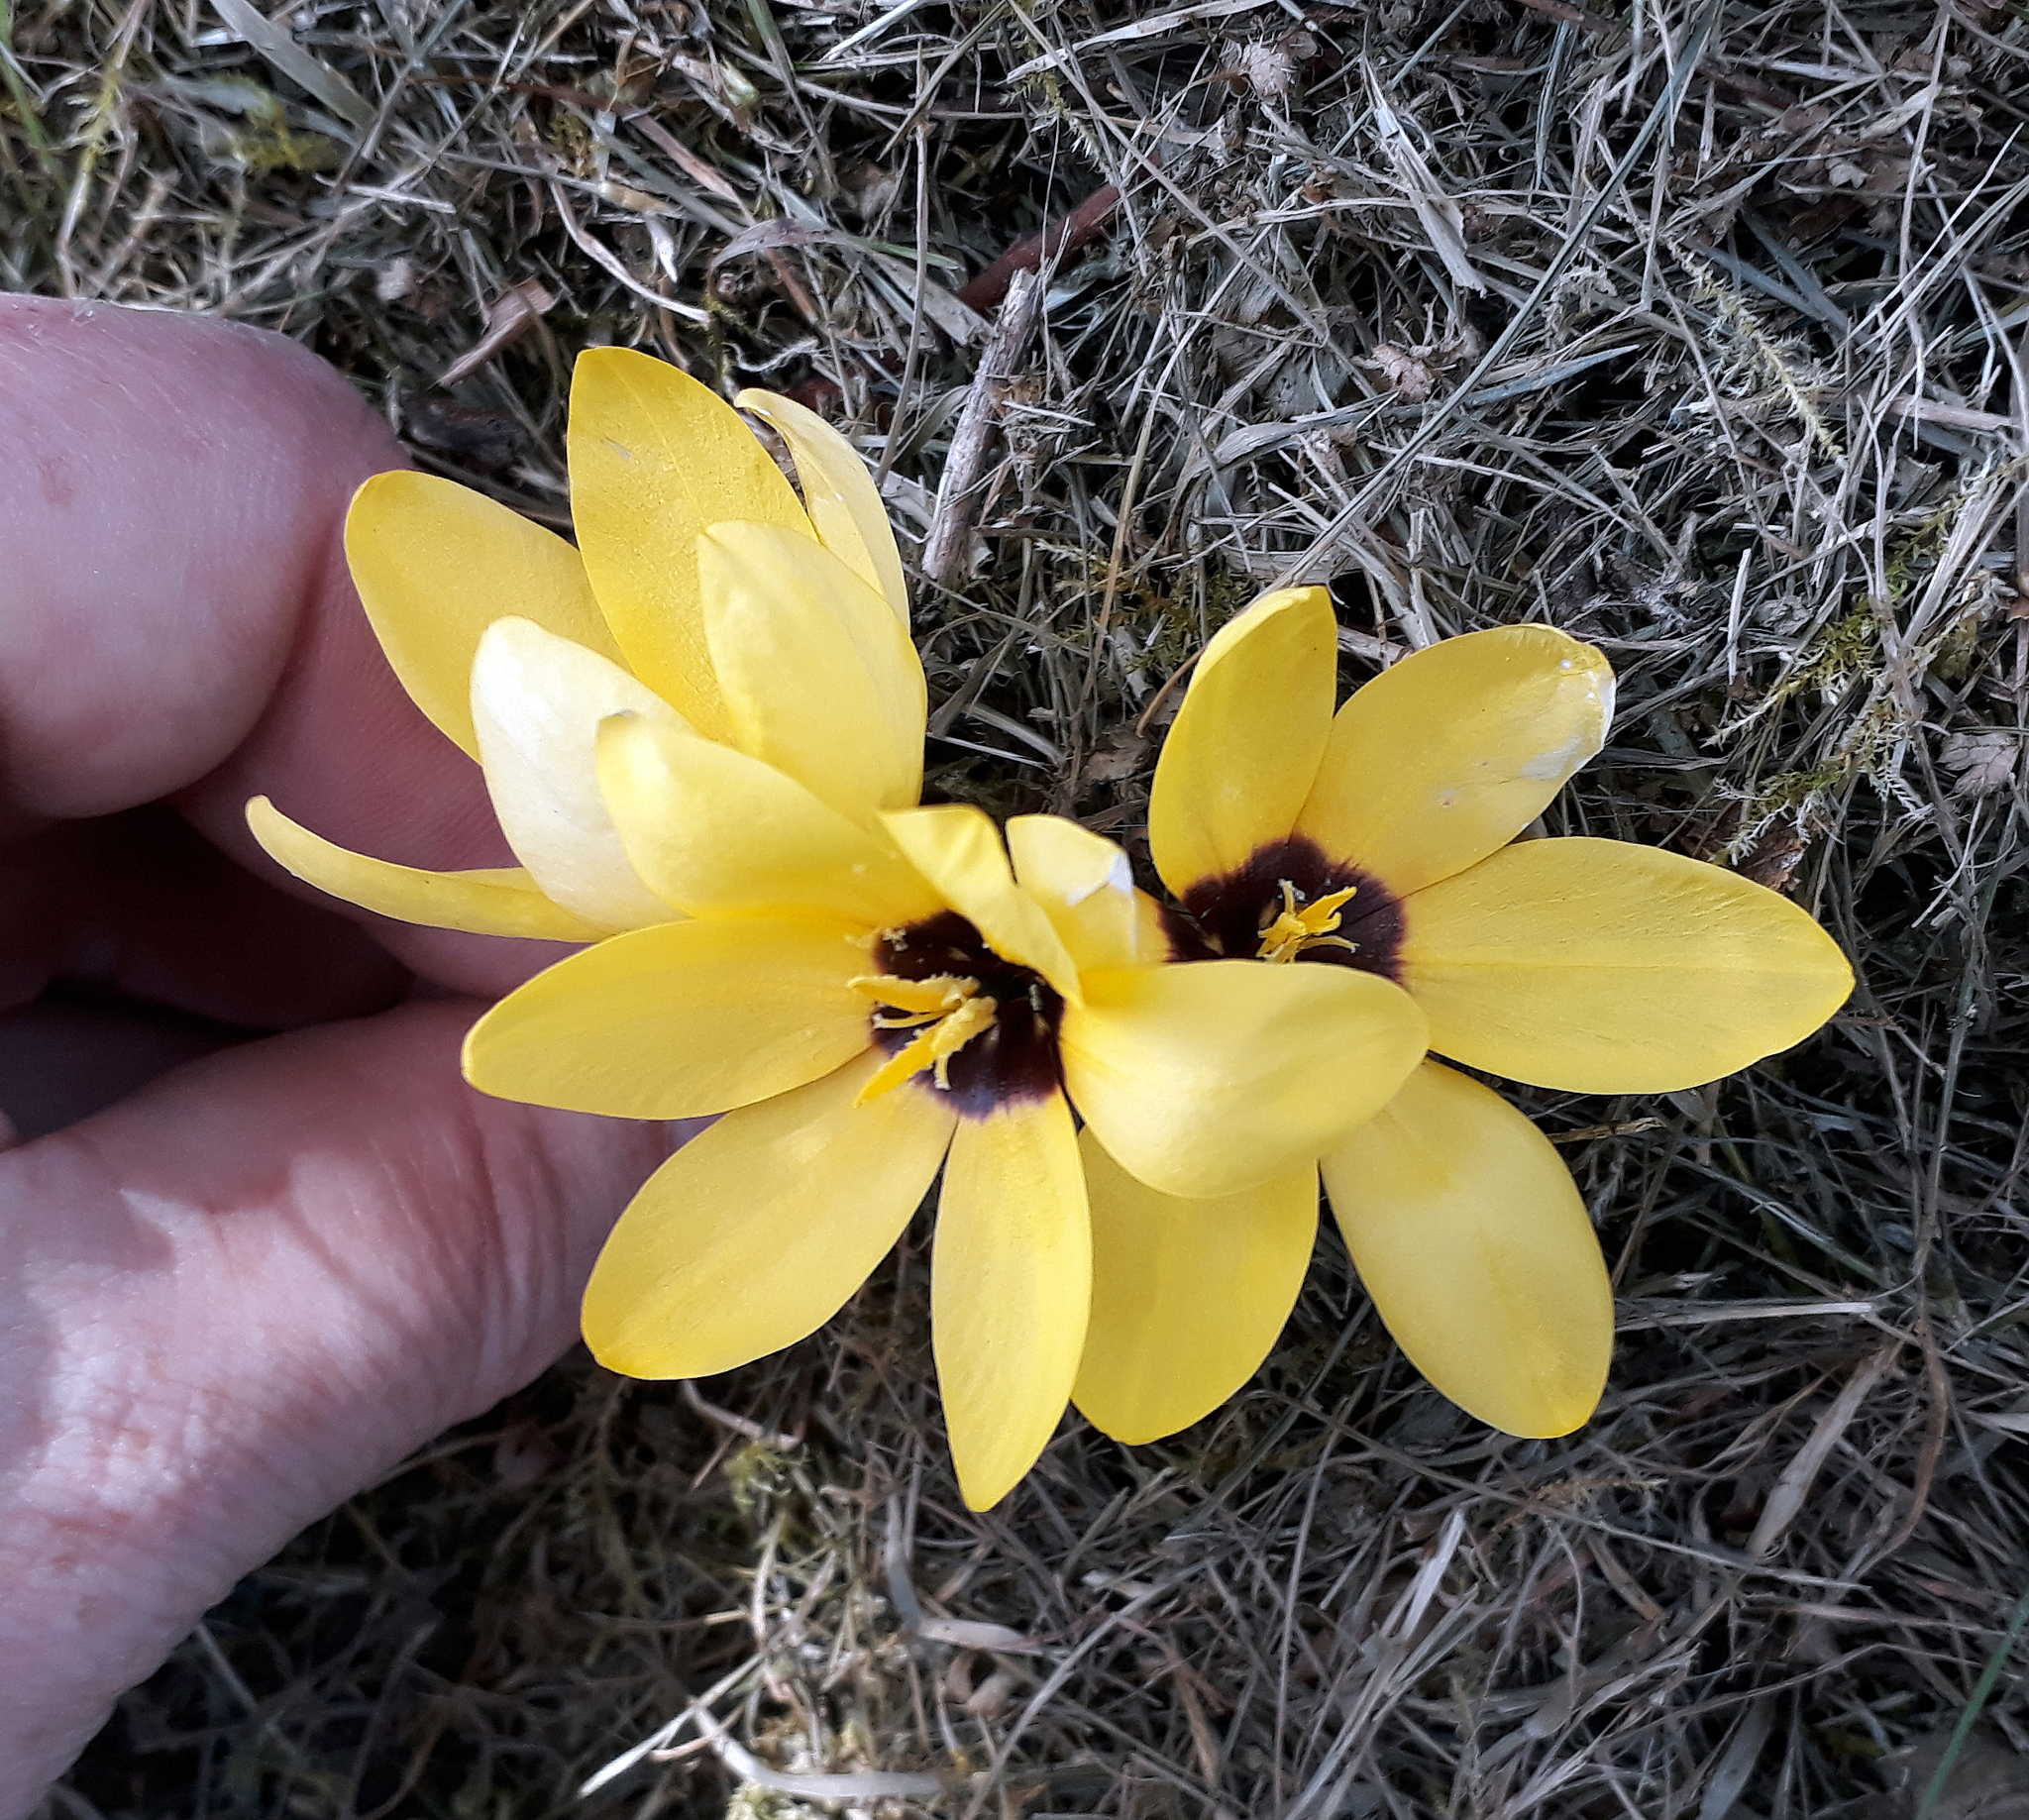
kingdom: Plantae
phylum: Tracheophyta
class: Liliopsida
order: Asparagales
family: Iridaceae
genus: Ixia
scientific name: Ixia fuscocitrina
